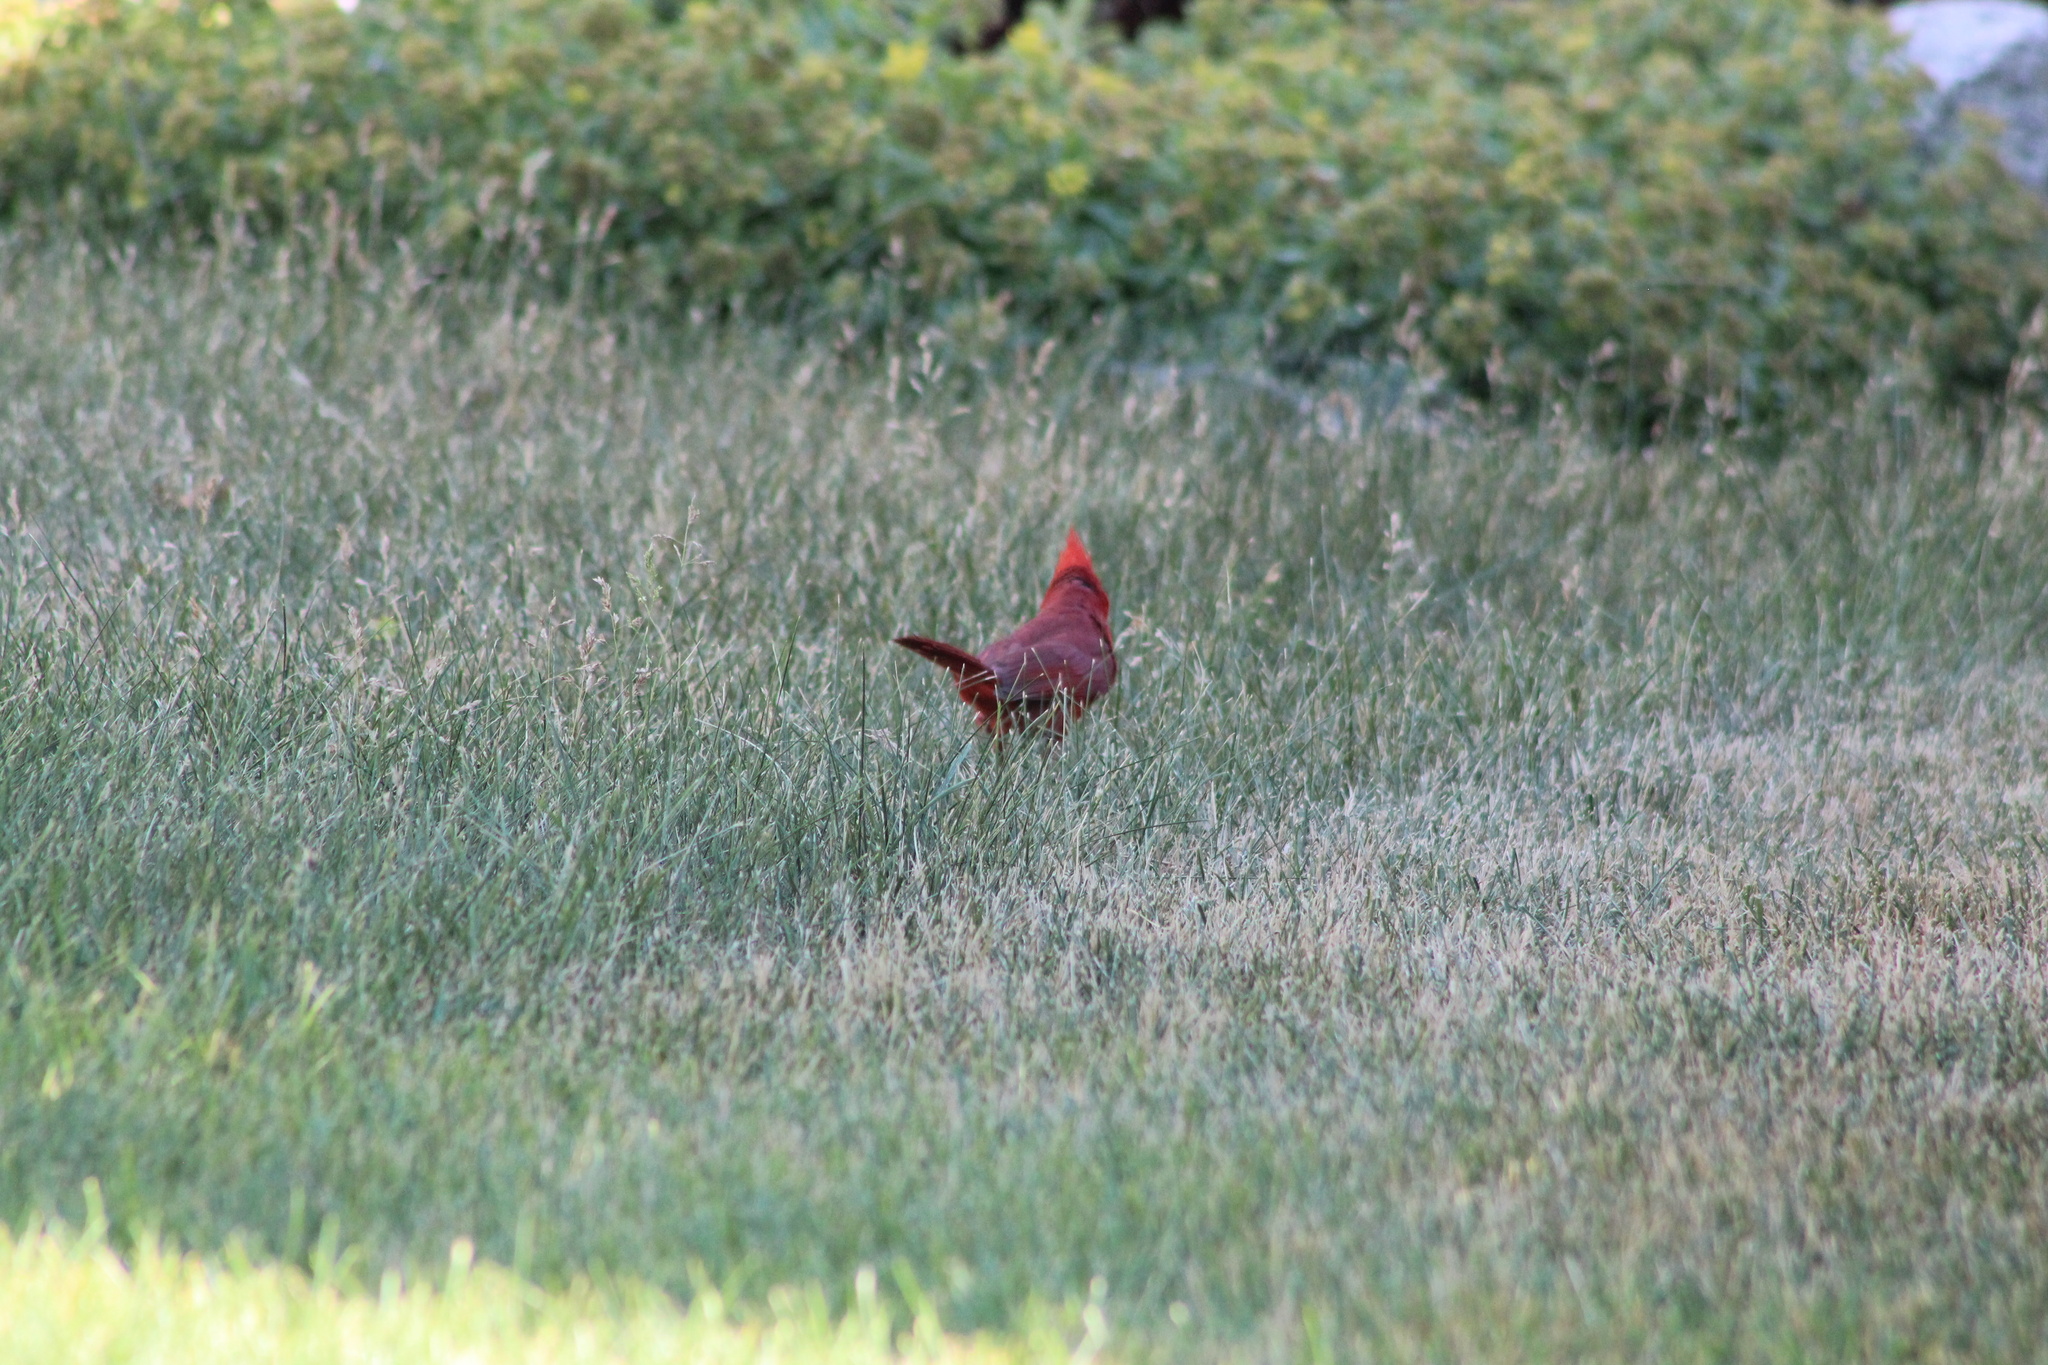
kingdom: Animalia
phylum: Chordata
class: Aves
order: Passeriformes
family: Cardinalidae
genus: Cardinalis
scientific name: Cardinalis cardinalis
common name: Northern cardinal
